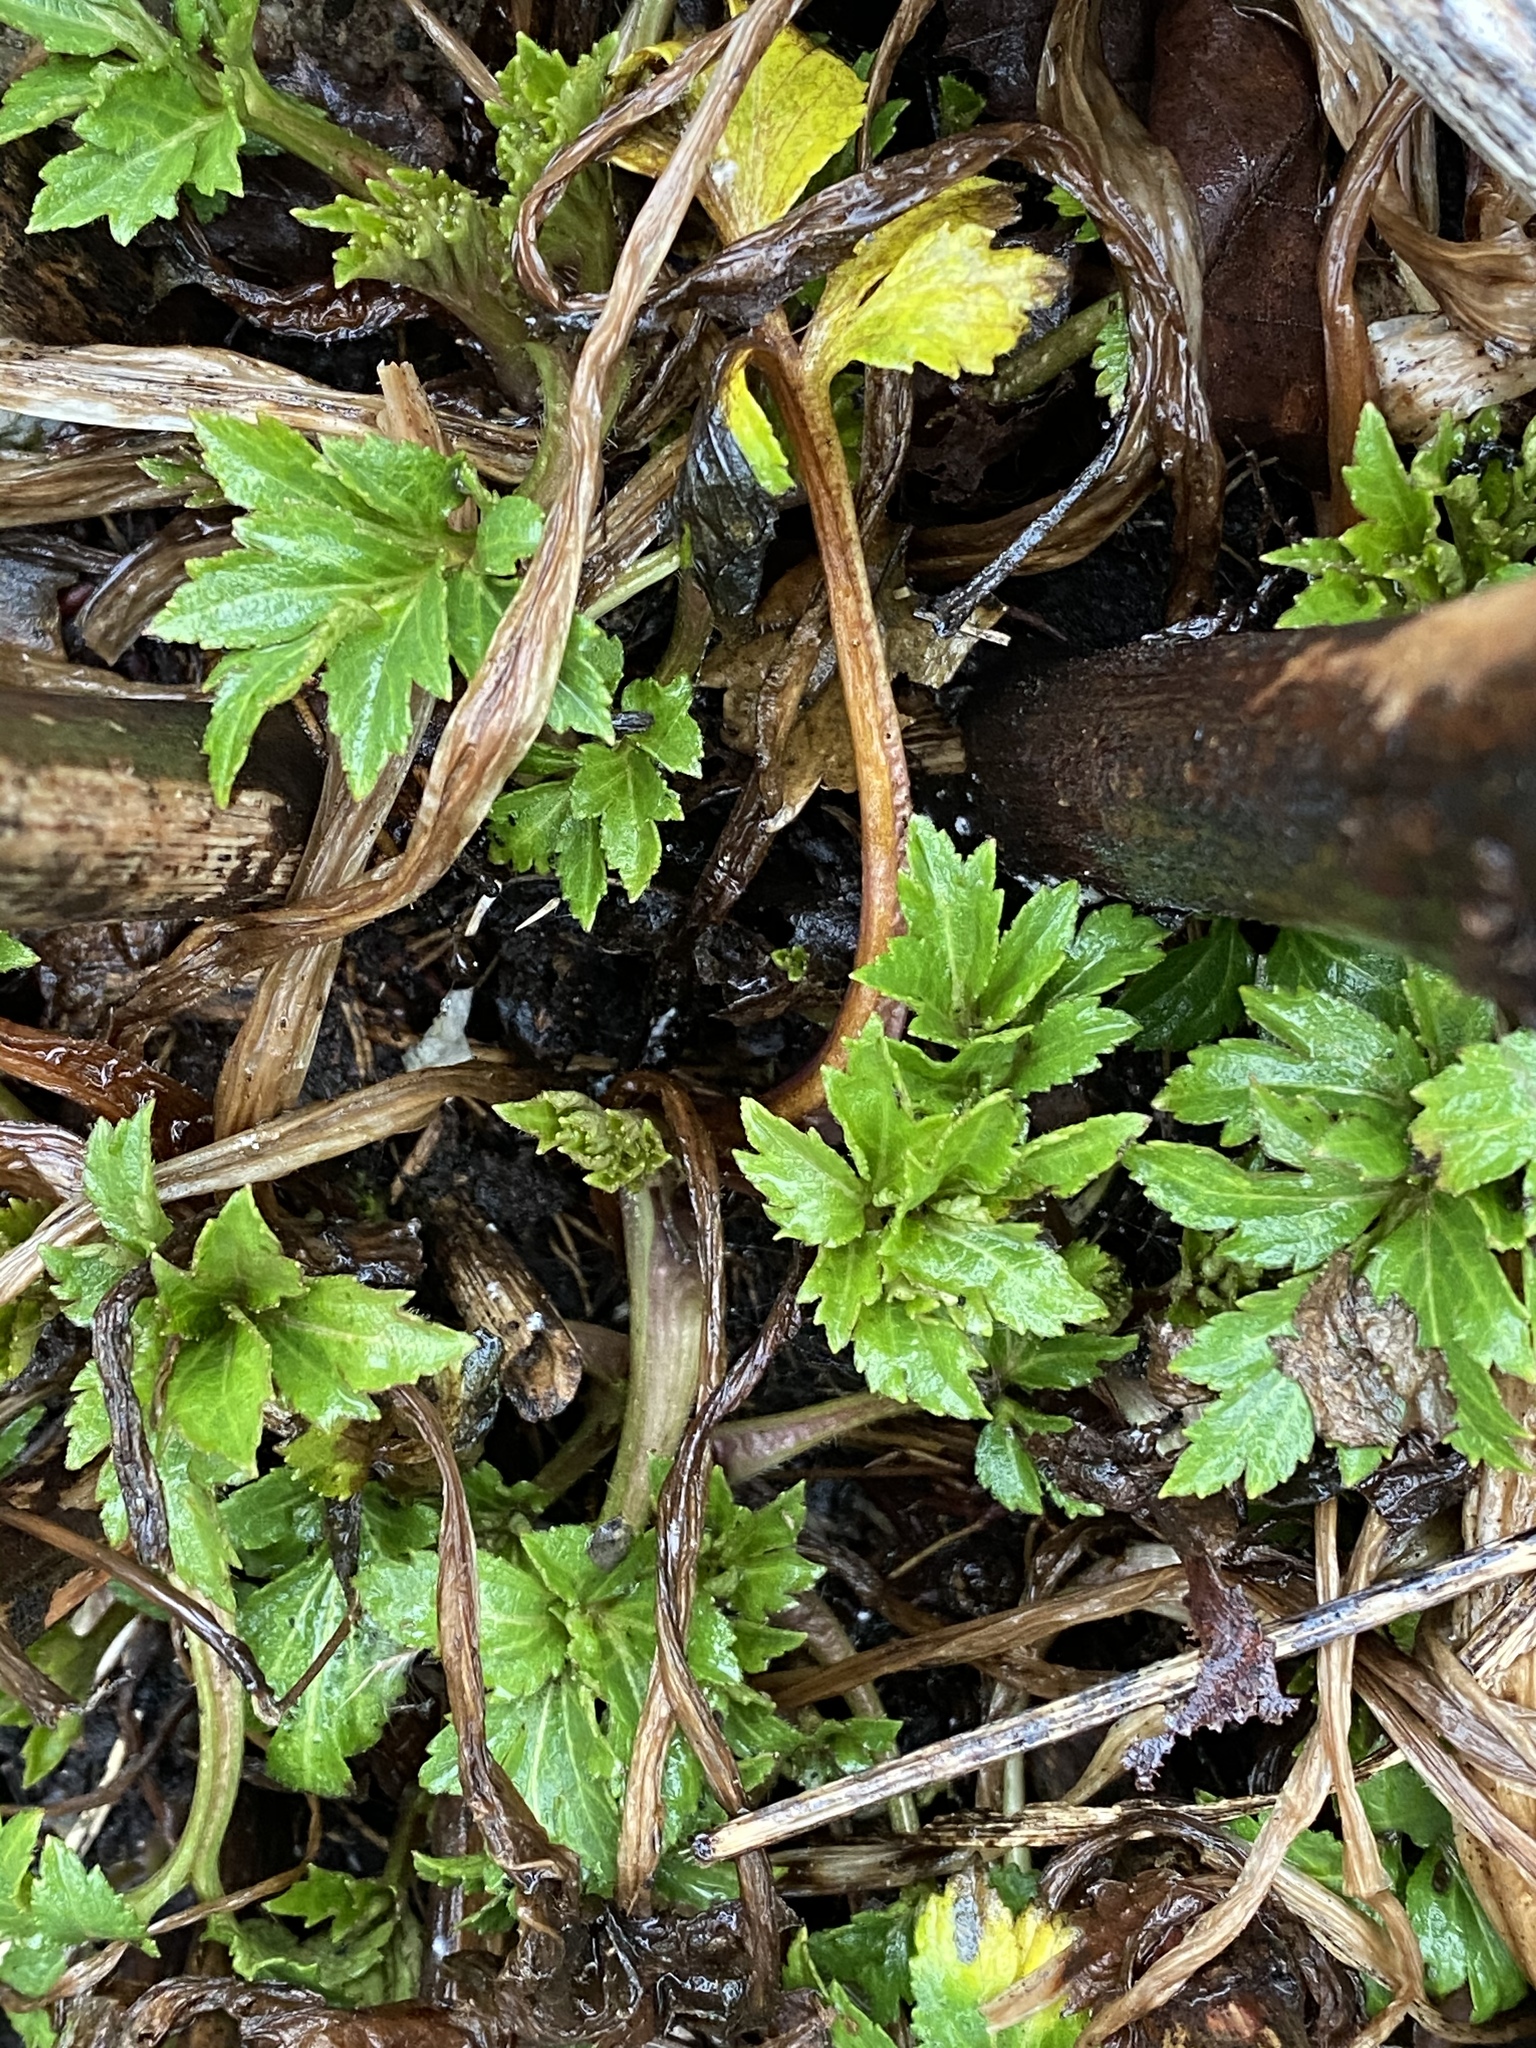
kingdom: Plantae
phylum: Tracheophyta
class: Magnoliopsida
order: Asterales
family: Asteraceae
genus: Rudbeckia
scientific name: Rudbeckia laciniata
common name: Coneflower
